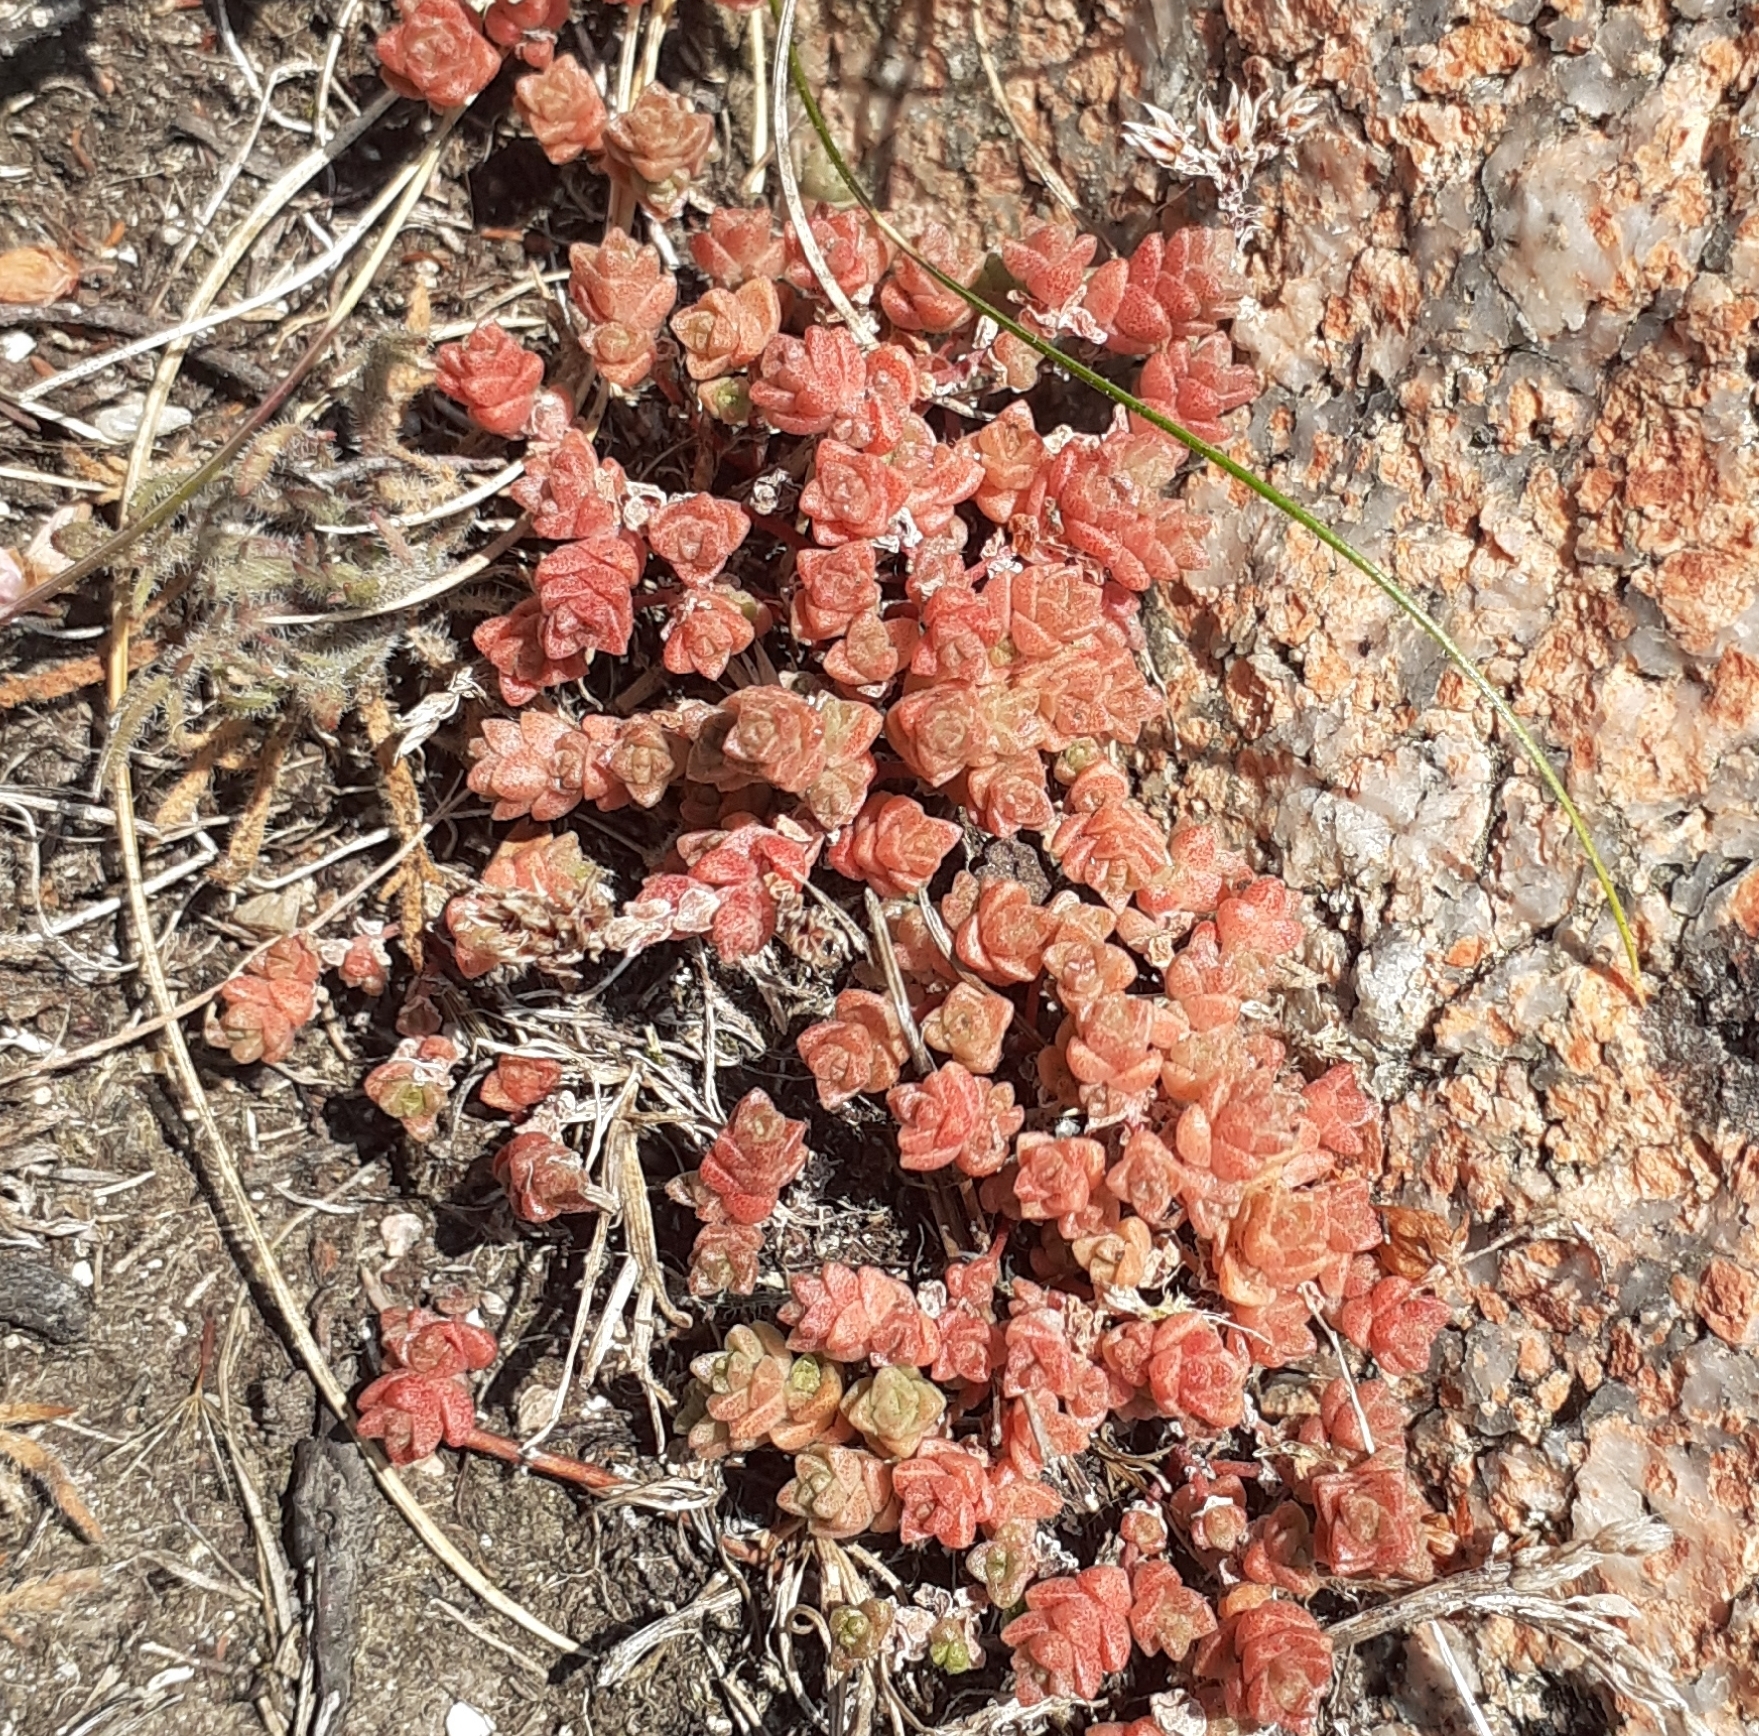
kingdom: Plantae
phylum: Tracheophyta
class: Magnoliopsida
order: Saxifragales
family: Crassulaceae
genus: Sedum
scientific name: Sedum anglicum
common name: English stonecrop
